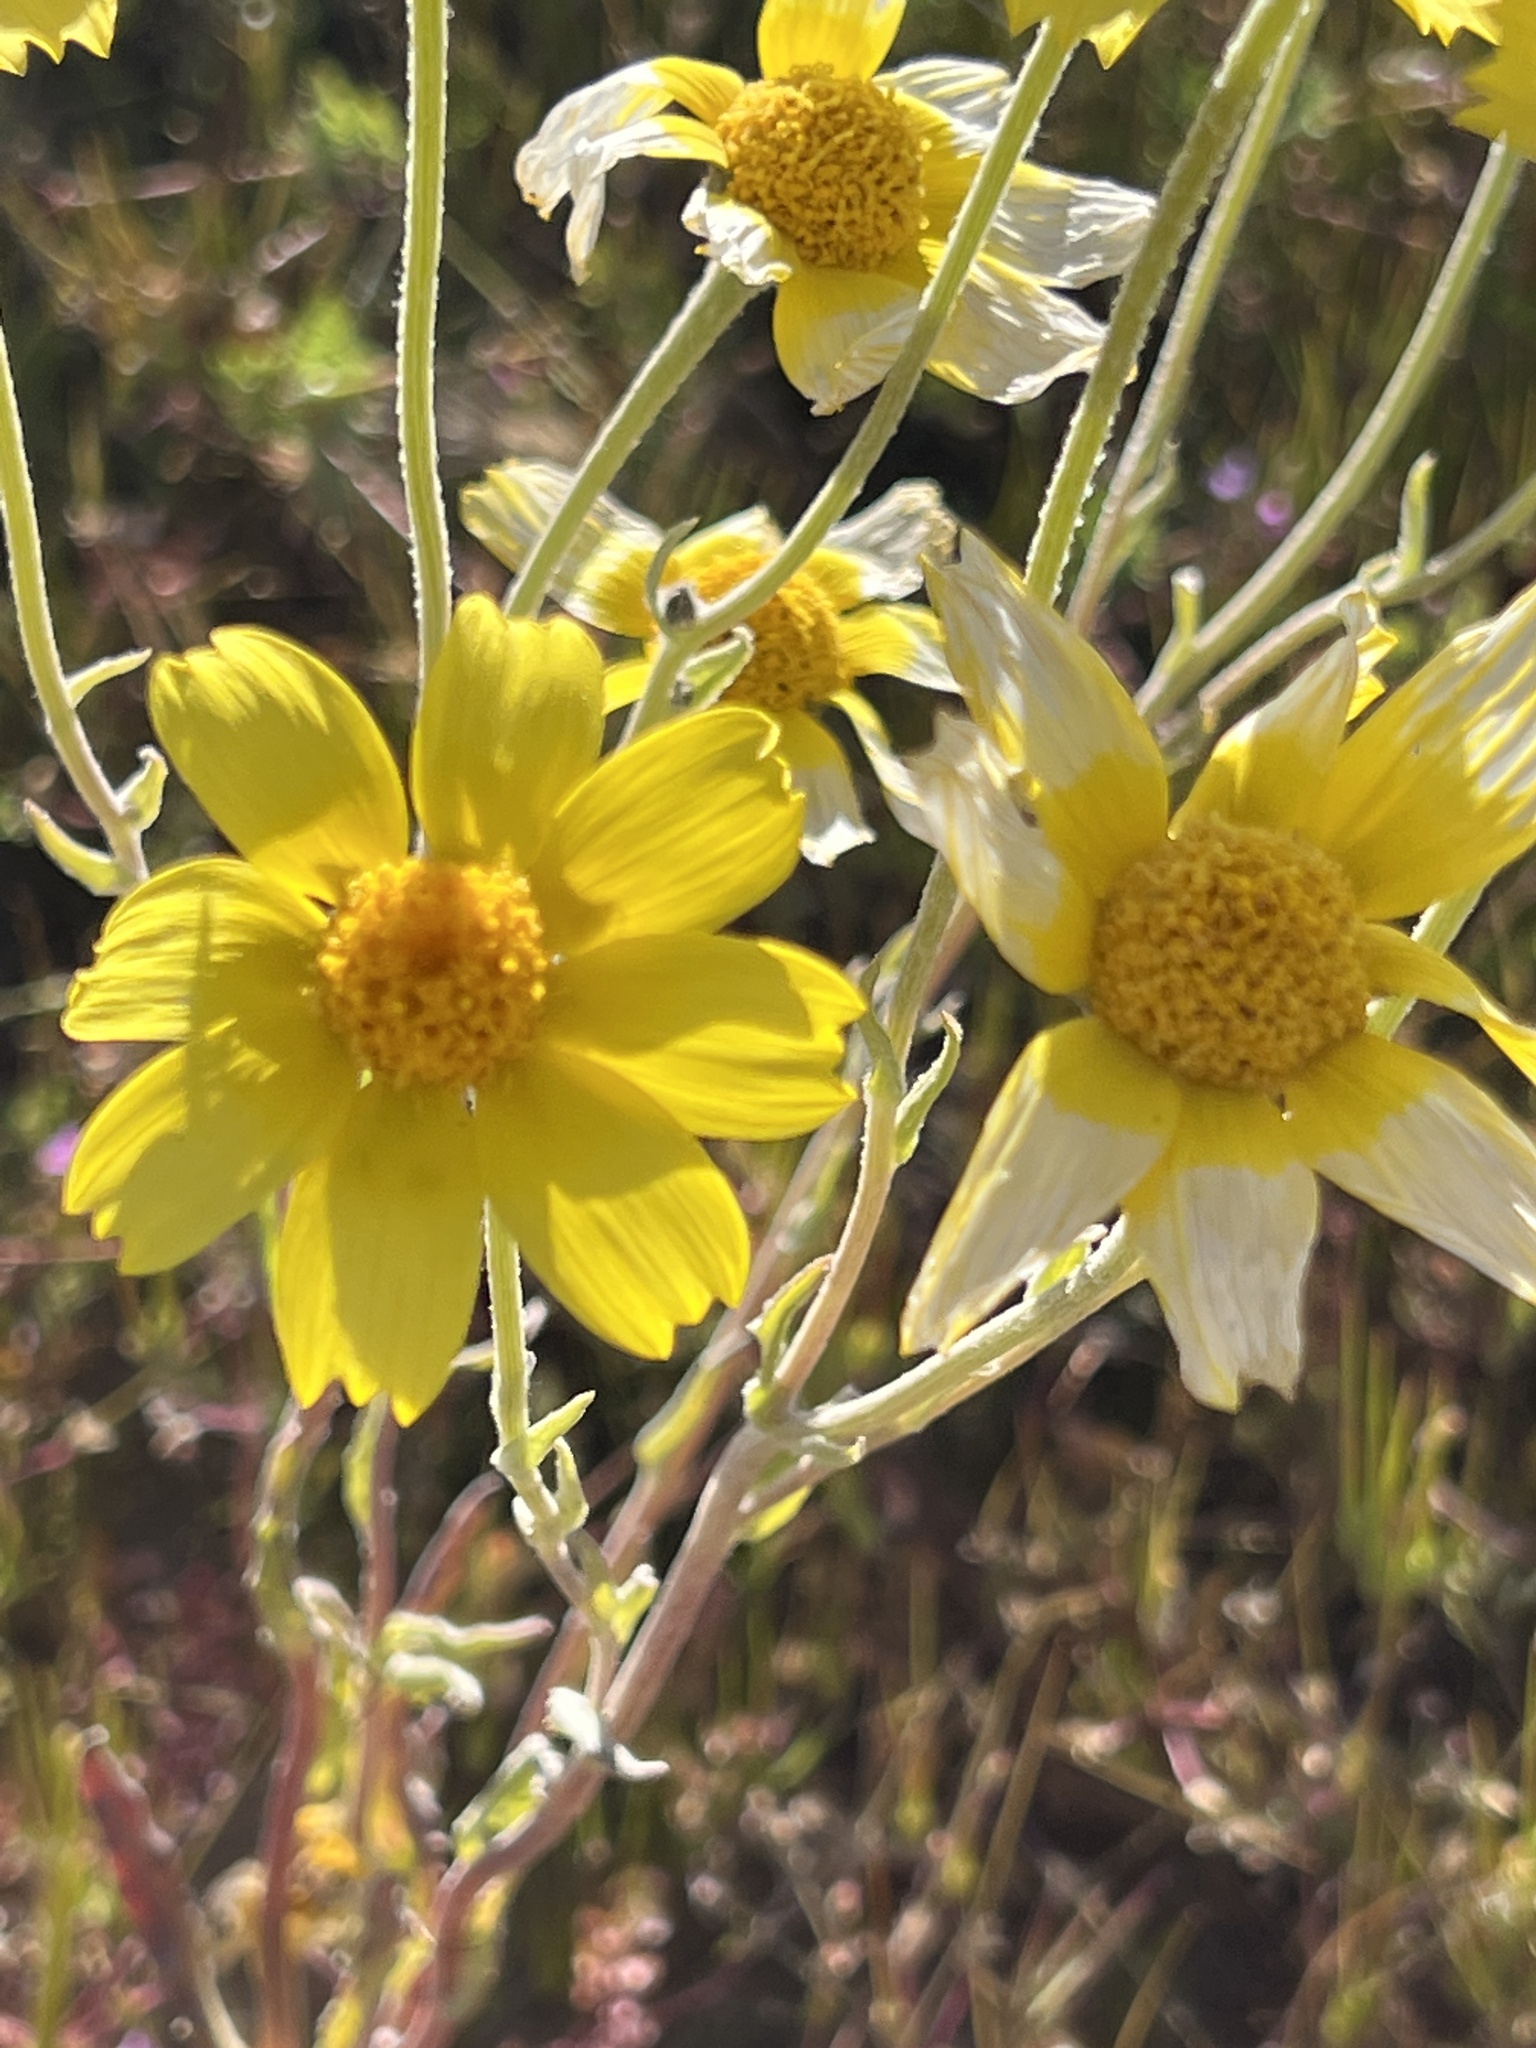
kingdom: Plantae
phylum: Tracheophyta
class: Magnoliopsida
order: Asterales
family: Asteraceae
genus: Monolopia
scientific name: Monolopia lanceolata
